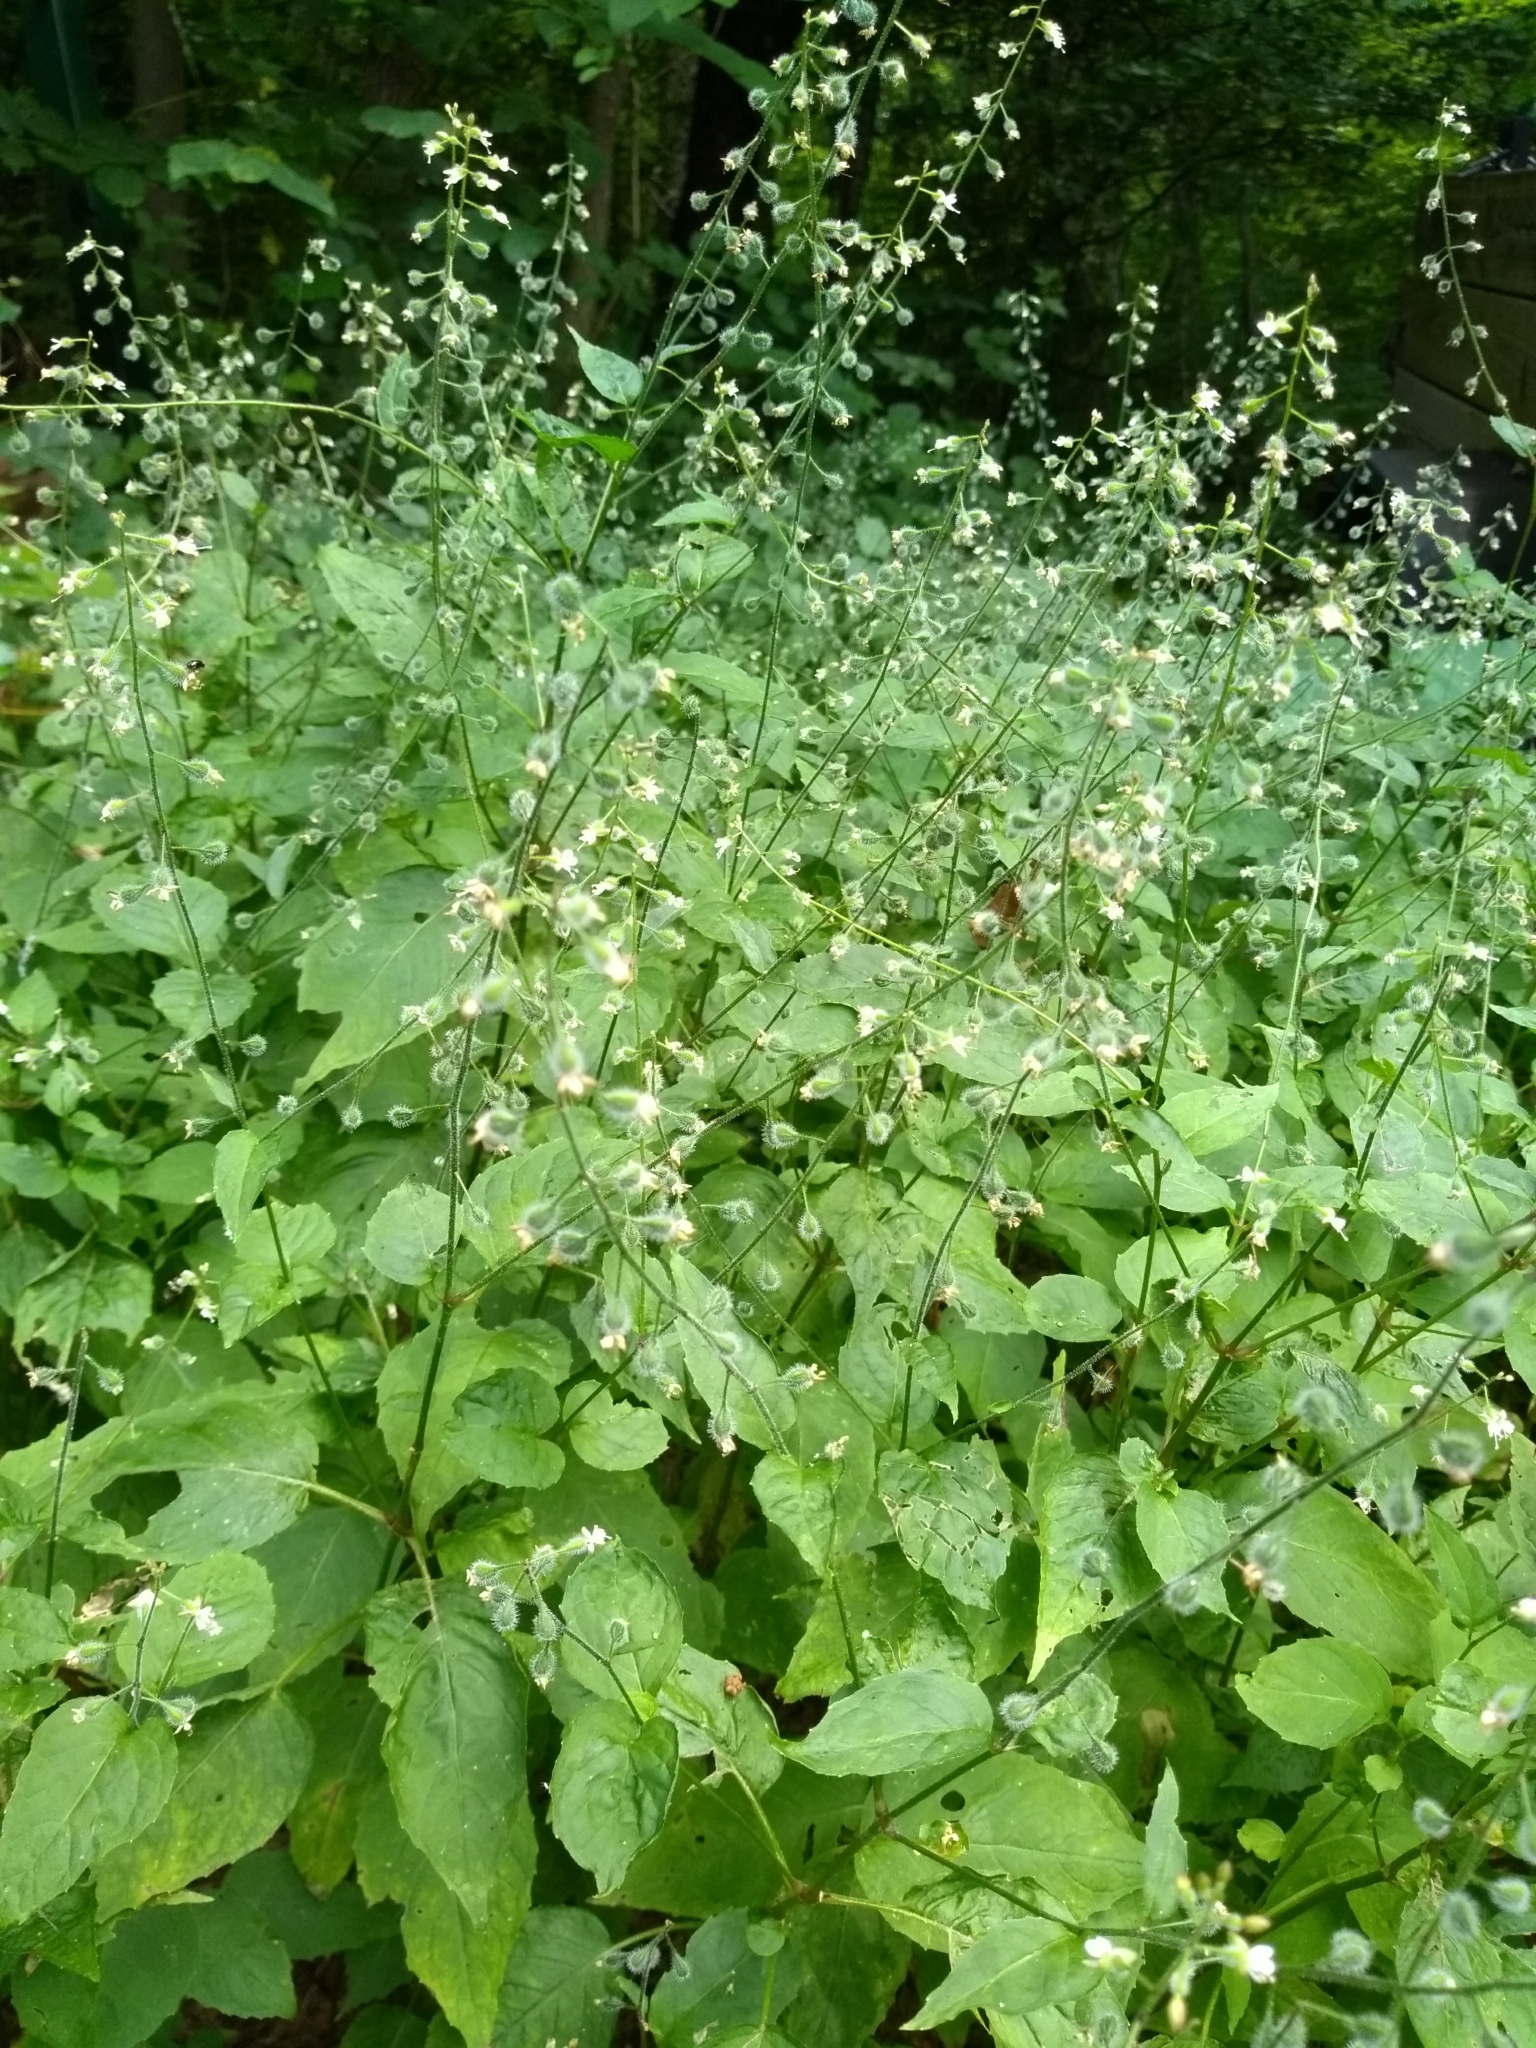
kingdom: Plantae
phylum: Tracheophyta
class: Magnoliopsida
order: Myrtales
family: Onagraceae
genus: Circaea
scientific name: Circaea canadensis
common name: Broad-leaved enchanter's nightshade
